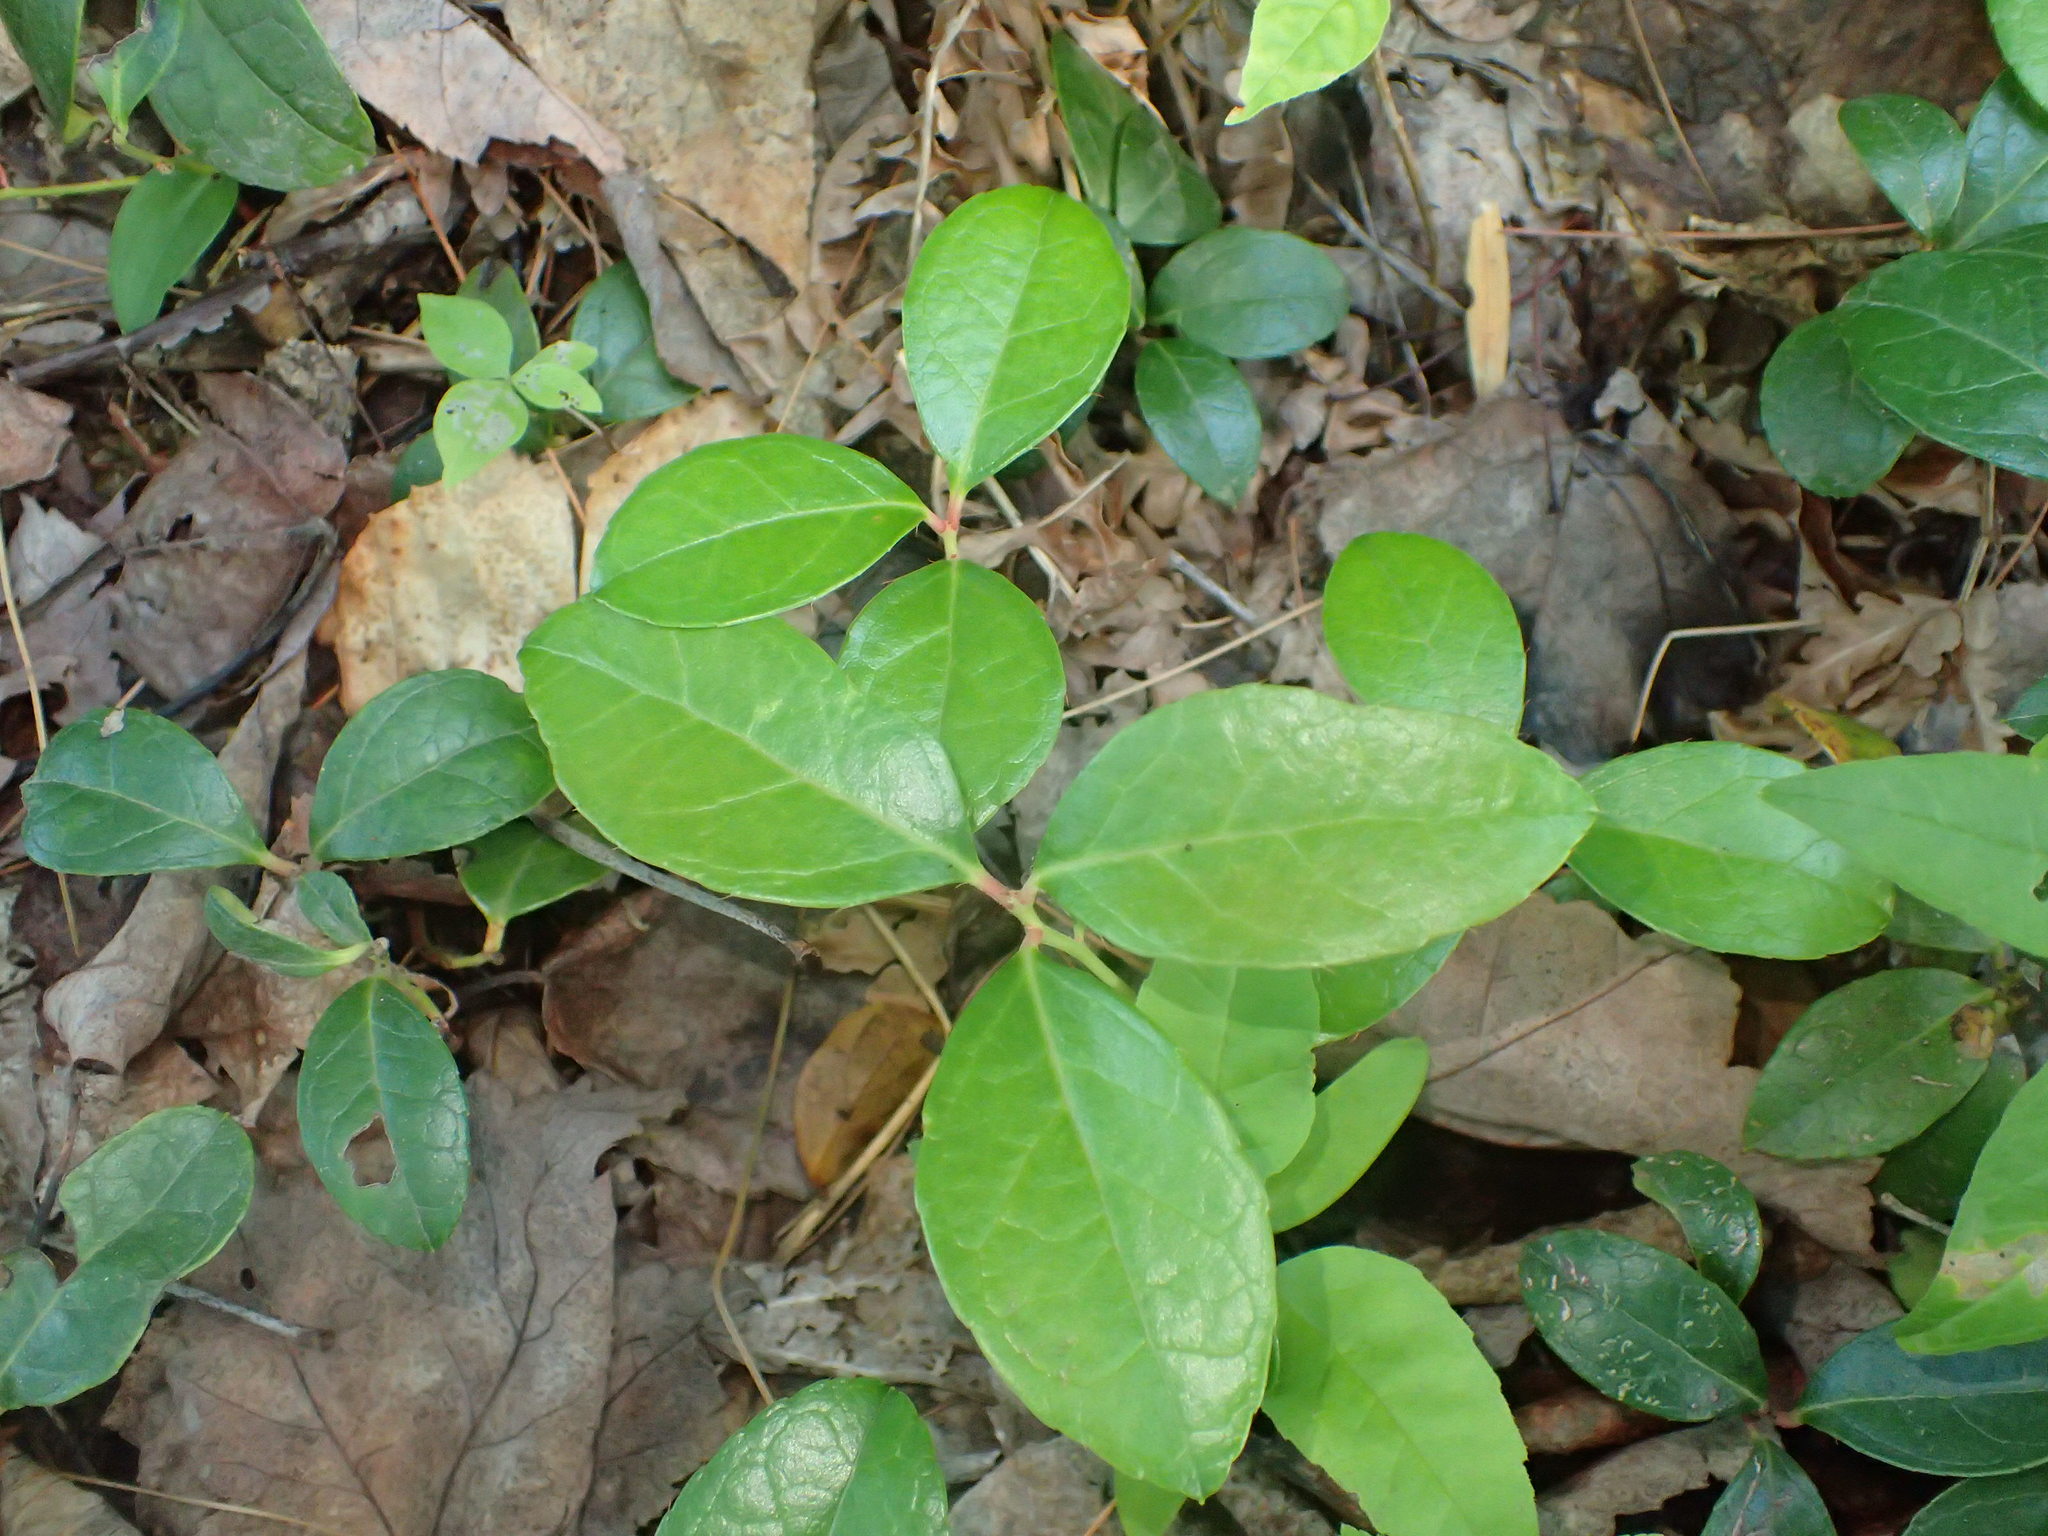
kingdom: Plantae
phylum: Tracheophyta
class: Magnoliopsida
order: Ericales
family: Ericaceae
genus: Gaultheria
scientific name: Gaultheria procumbens
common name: Checkerberry
